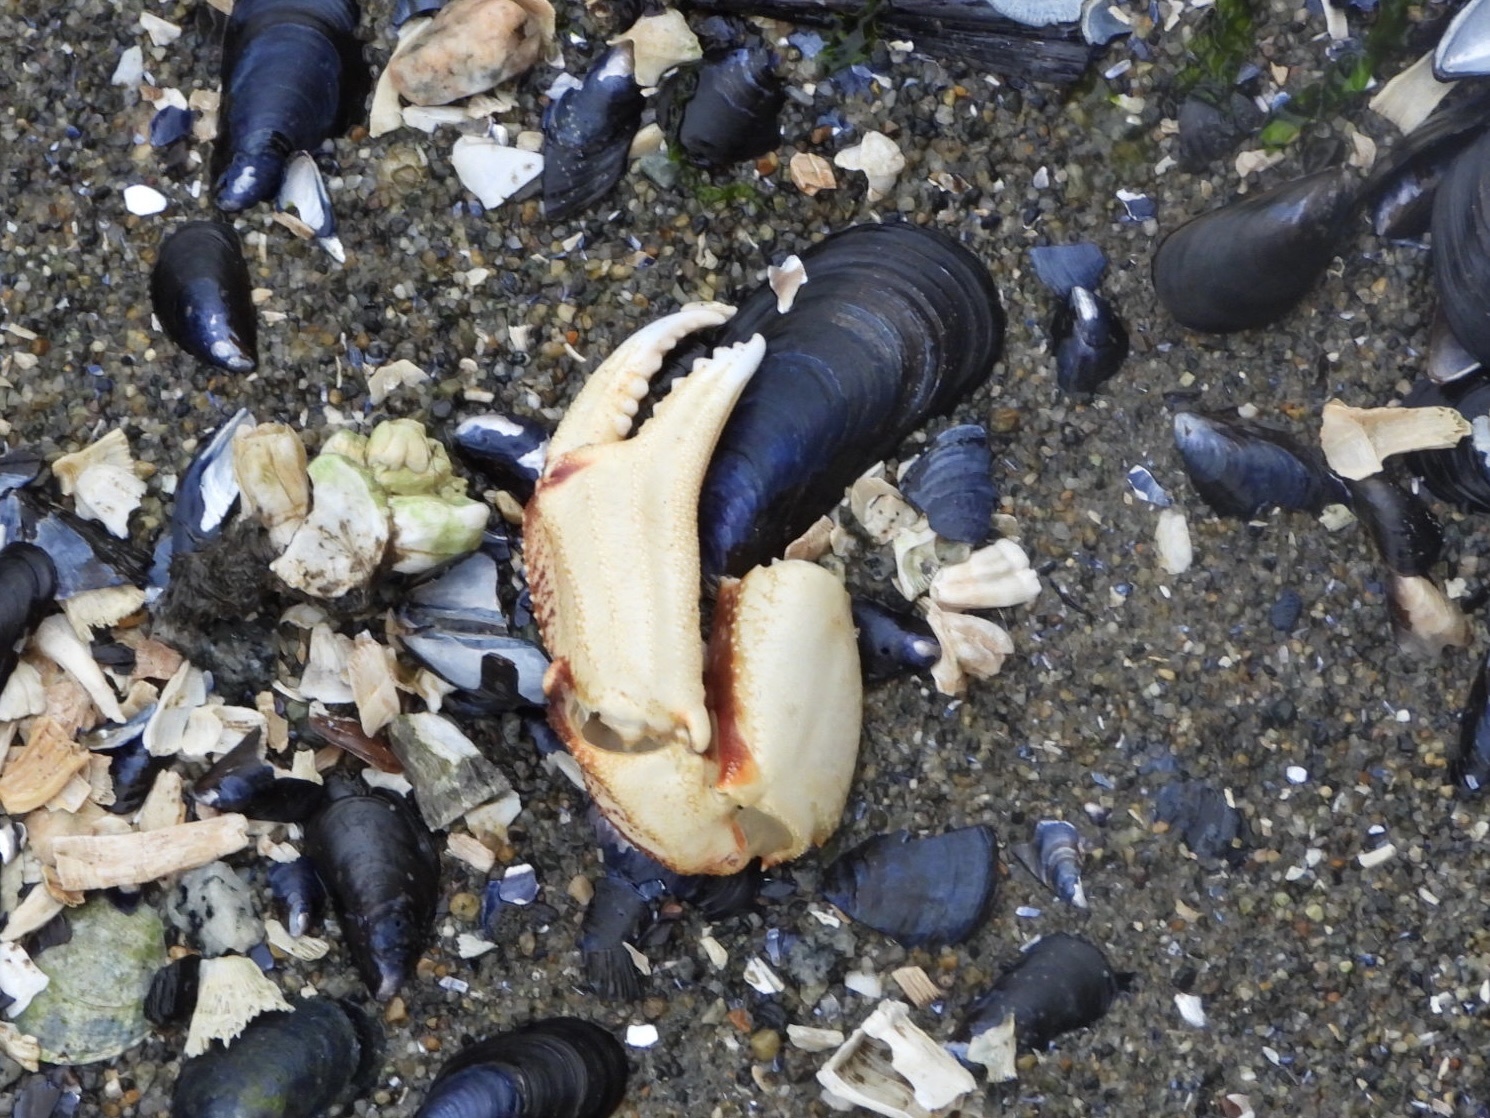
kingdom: Animalia
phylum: Arthropoda
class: Malacostraca
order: Decapoda
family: Cancridae
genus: Metacarcinus
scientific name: Metacarcinus magister
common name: Californian crab
